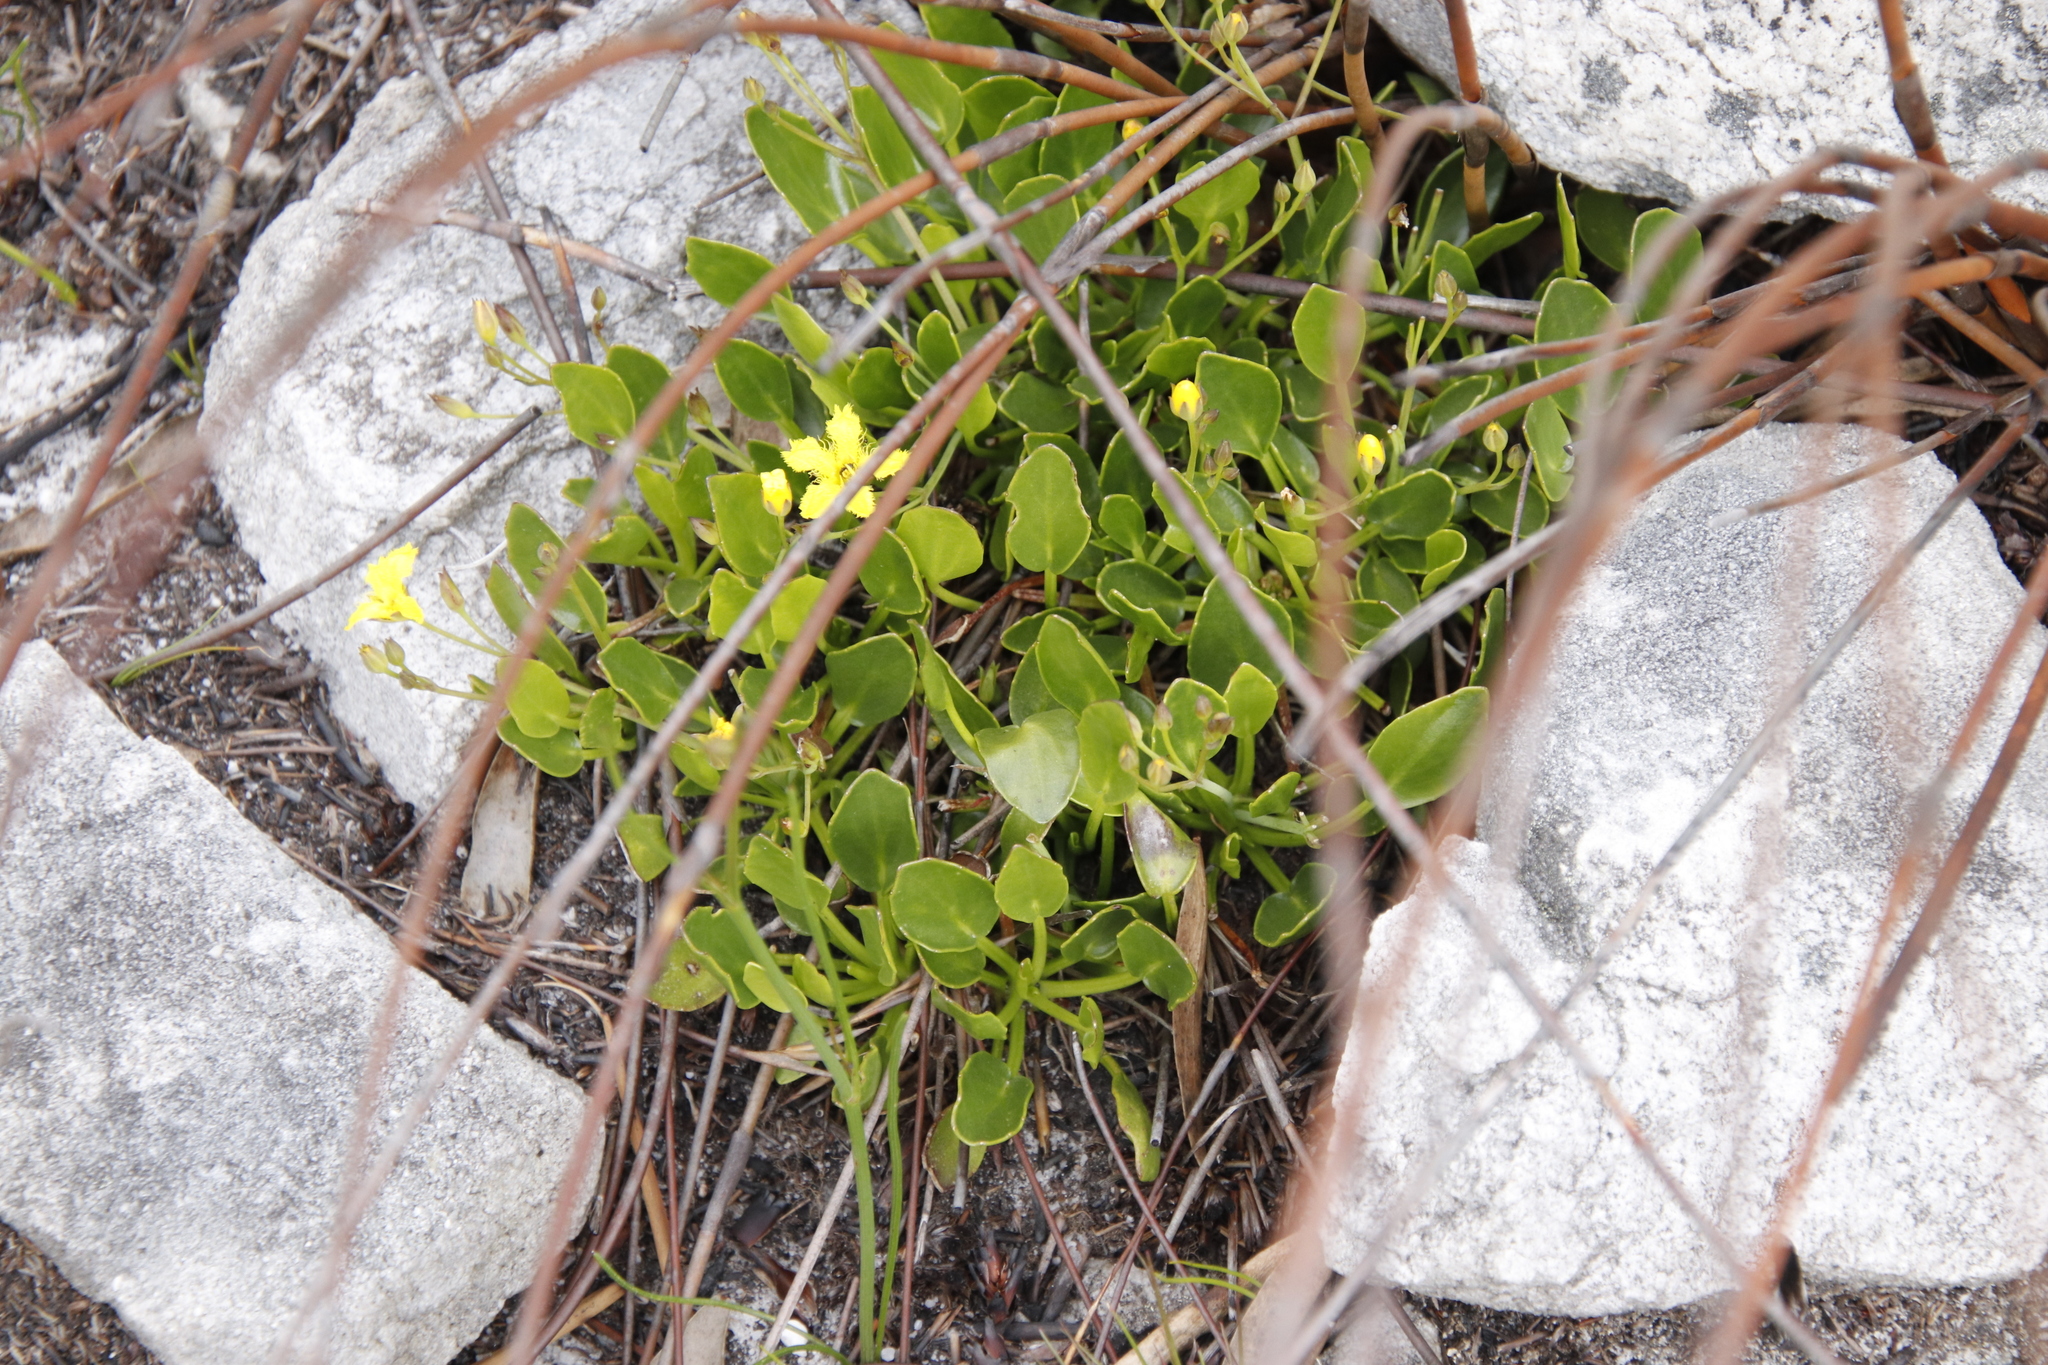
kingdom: Plantae
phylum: Tracheophyta
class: Magnoliopsida
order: Asterales
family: Menyanthaceae
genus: Villarsia
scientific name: Villarsia manningiana
